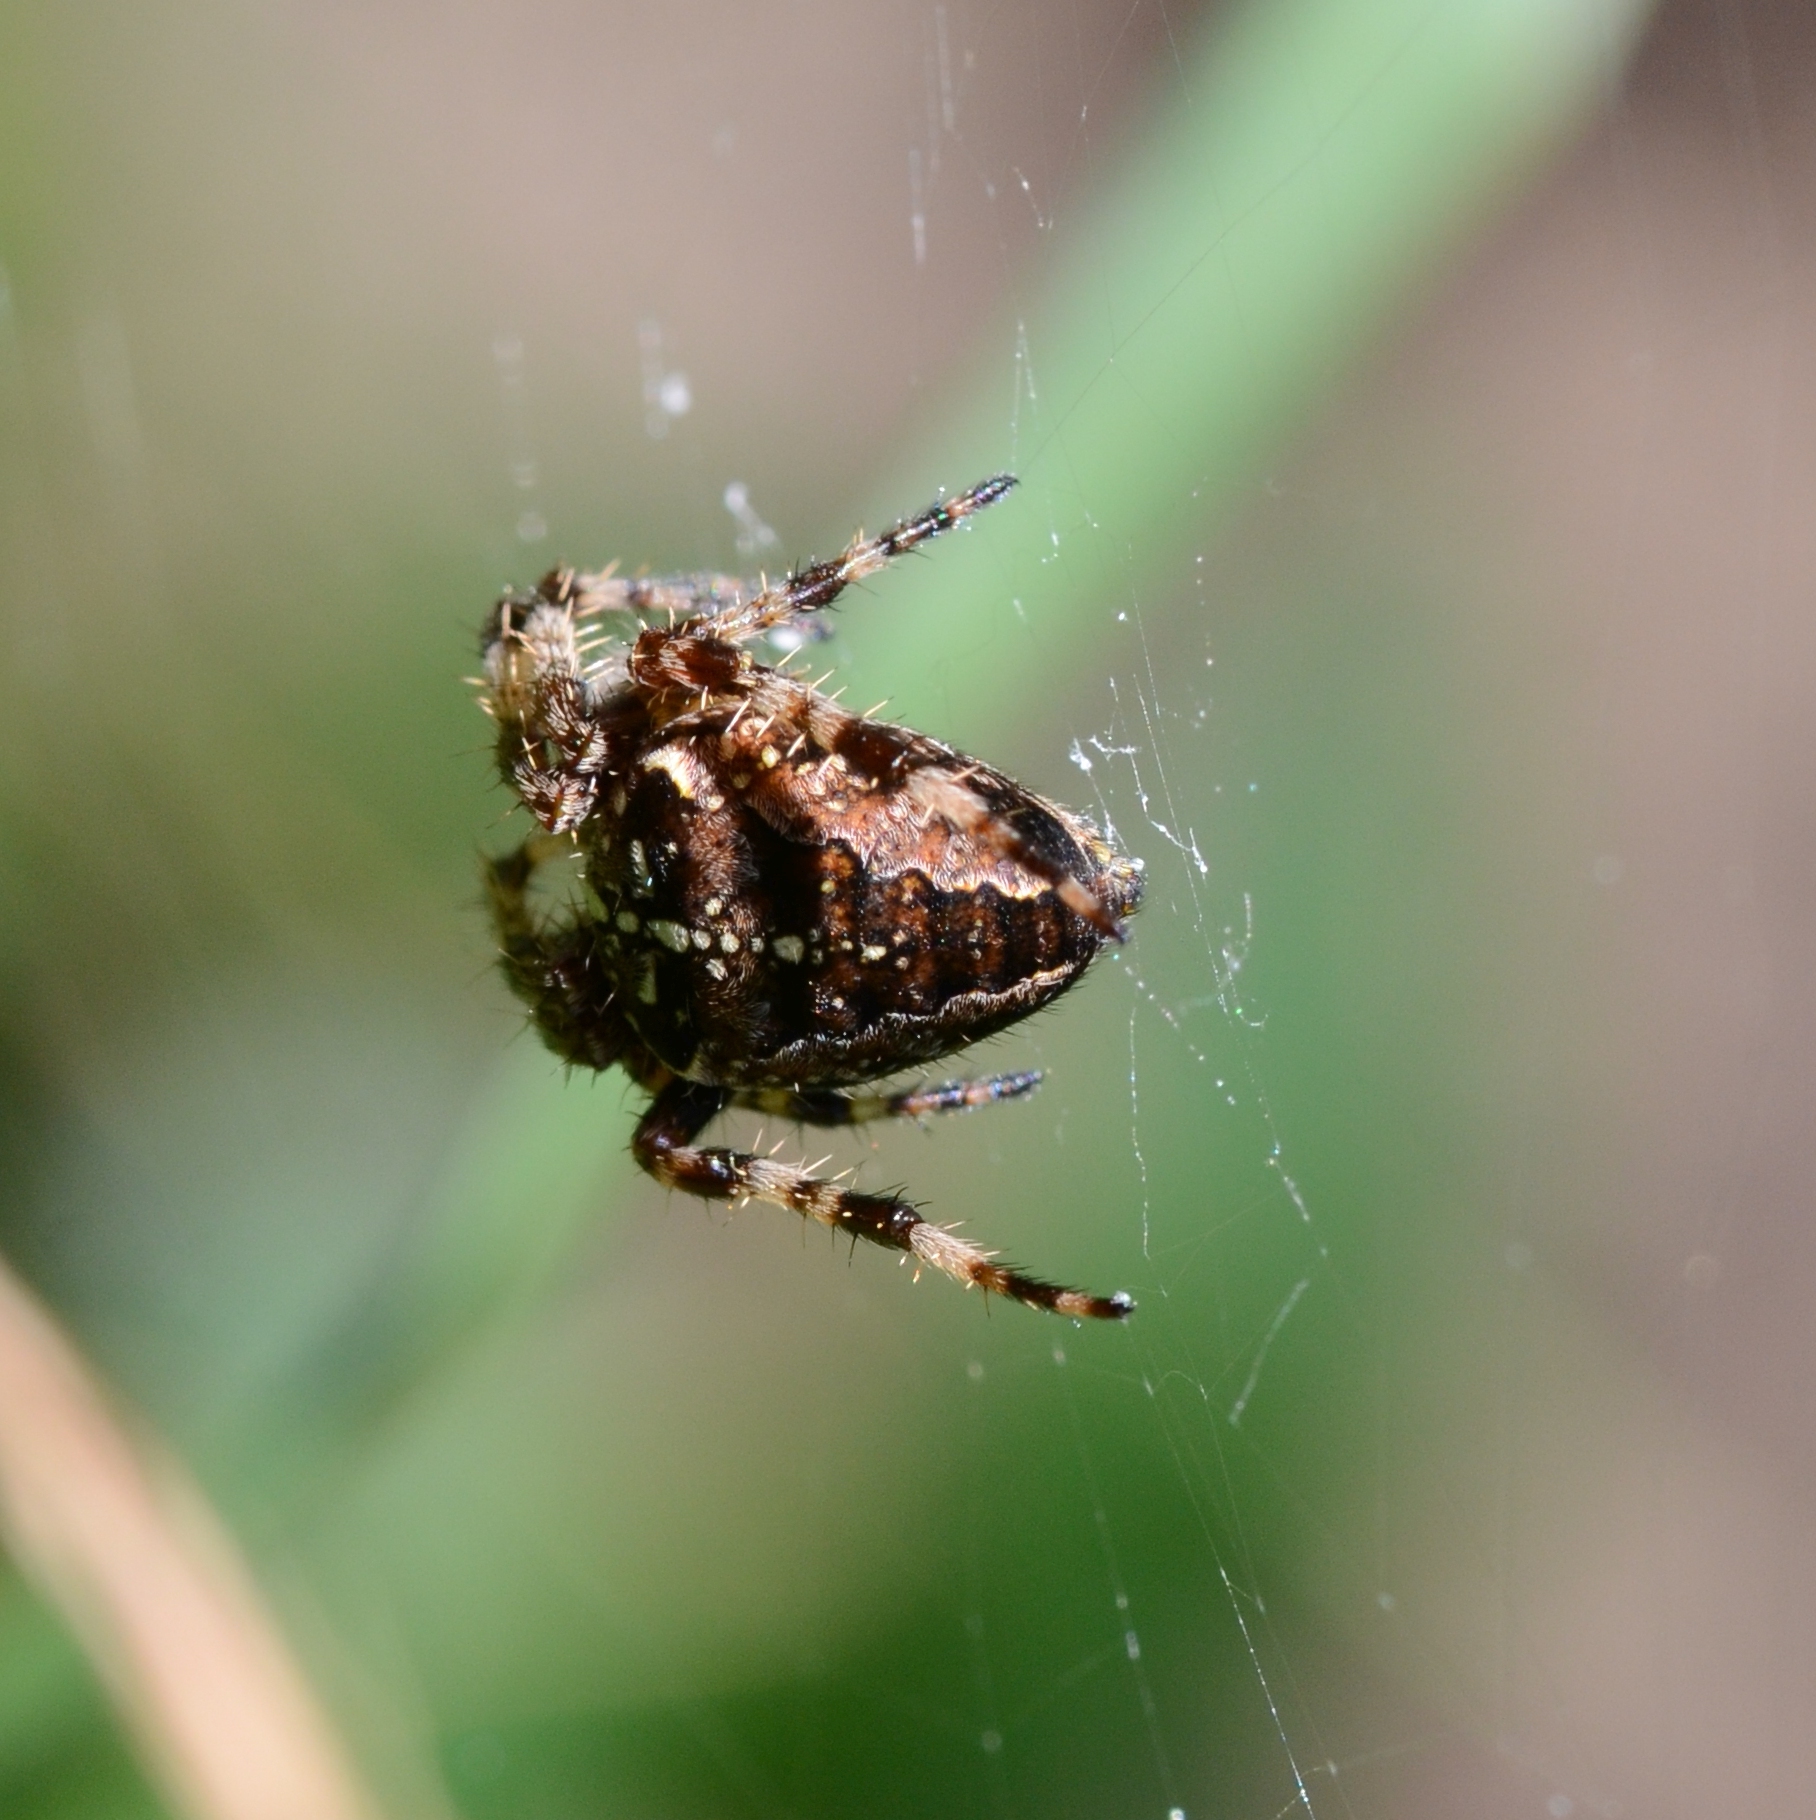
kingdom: Animalia
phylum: Arthropoda
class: Arachnida
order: Araneae
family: Araneidae
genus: Araneus
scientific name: Araneus diadematus
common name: Cross orbweaver
